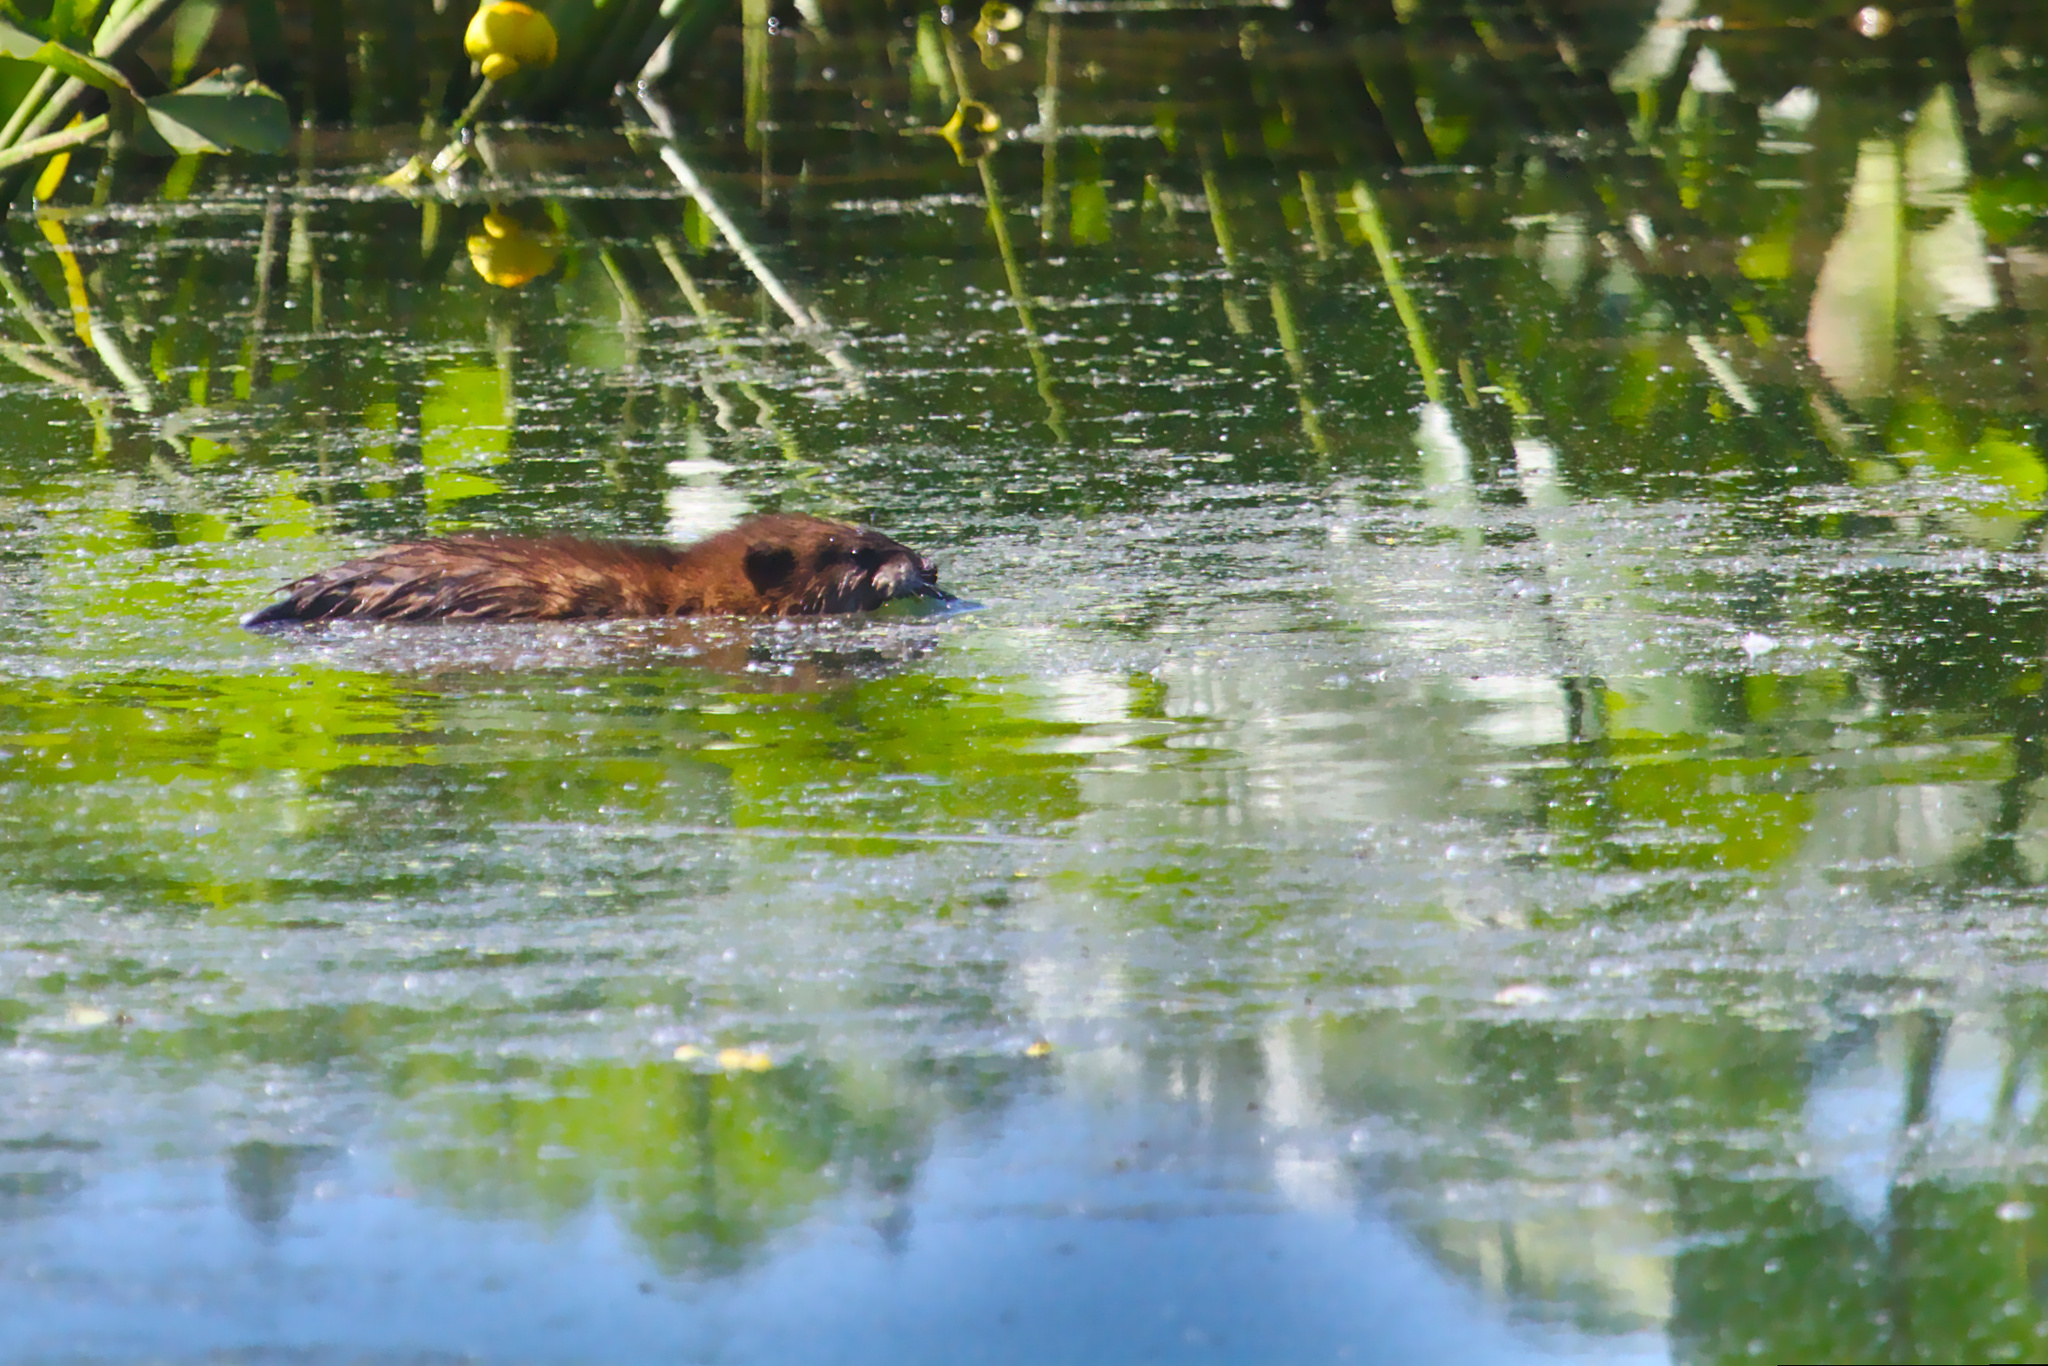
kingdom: Animalia
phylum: Chordata
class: Mammalia
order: Rodentia
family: Cricetidae
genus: Ondatra
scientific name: Ondatra zibethicus
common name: Muskrat
